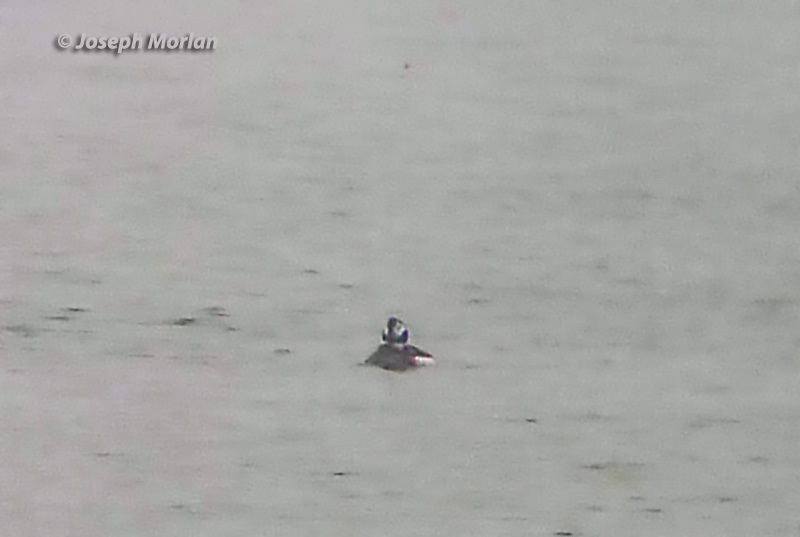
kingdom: Animalia
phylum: Chordata
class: Aves
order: Anseriformes
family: Anatidae
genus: Clangula
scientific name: Clangula hyemalis
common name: Long-tailed duck
